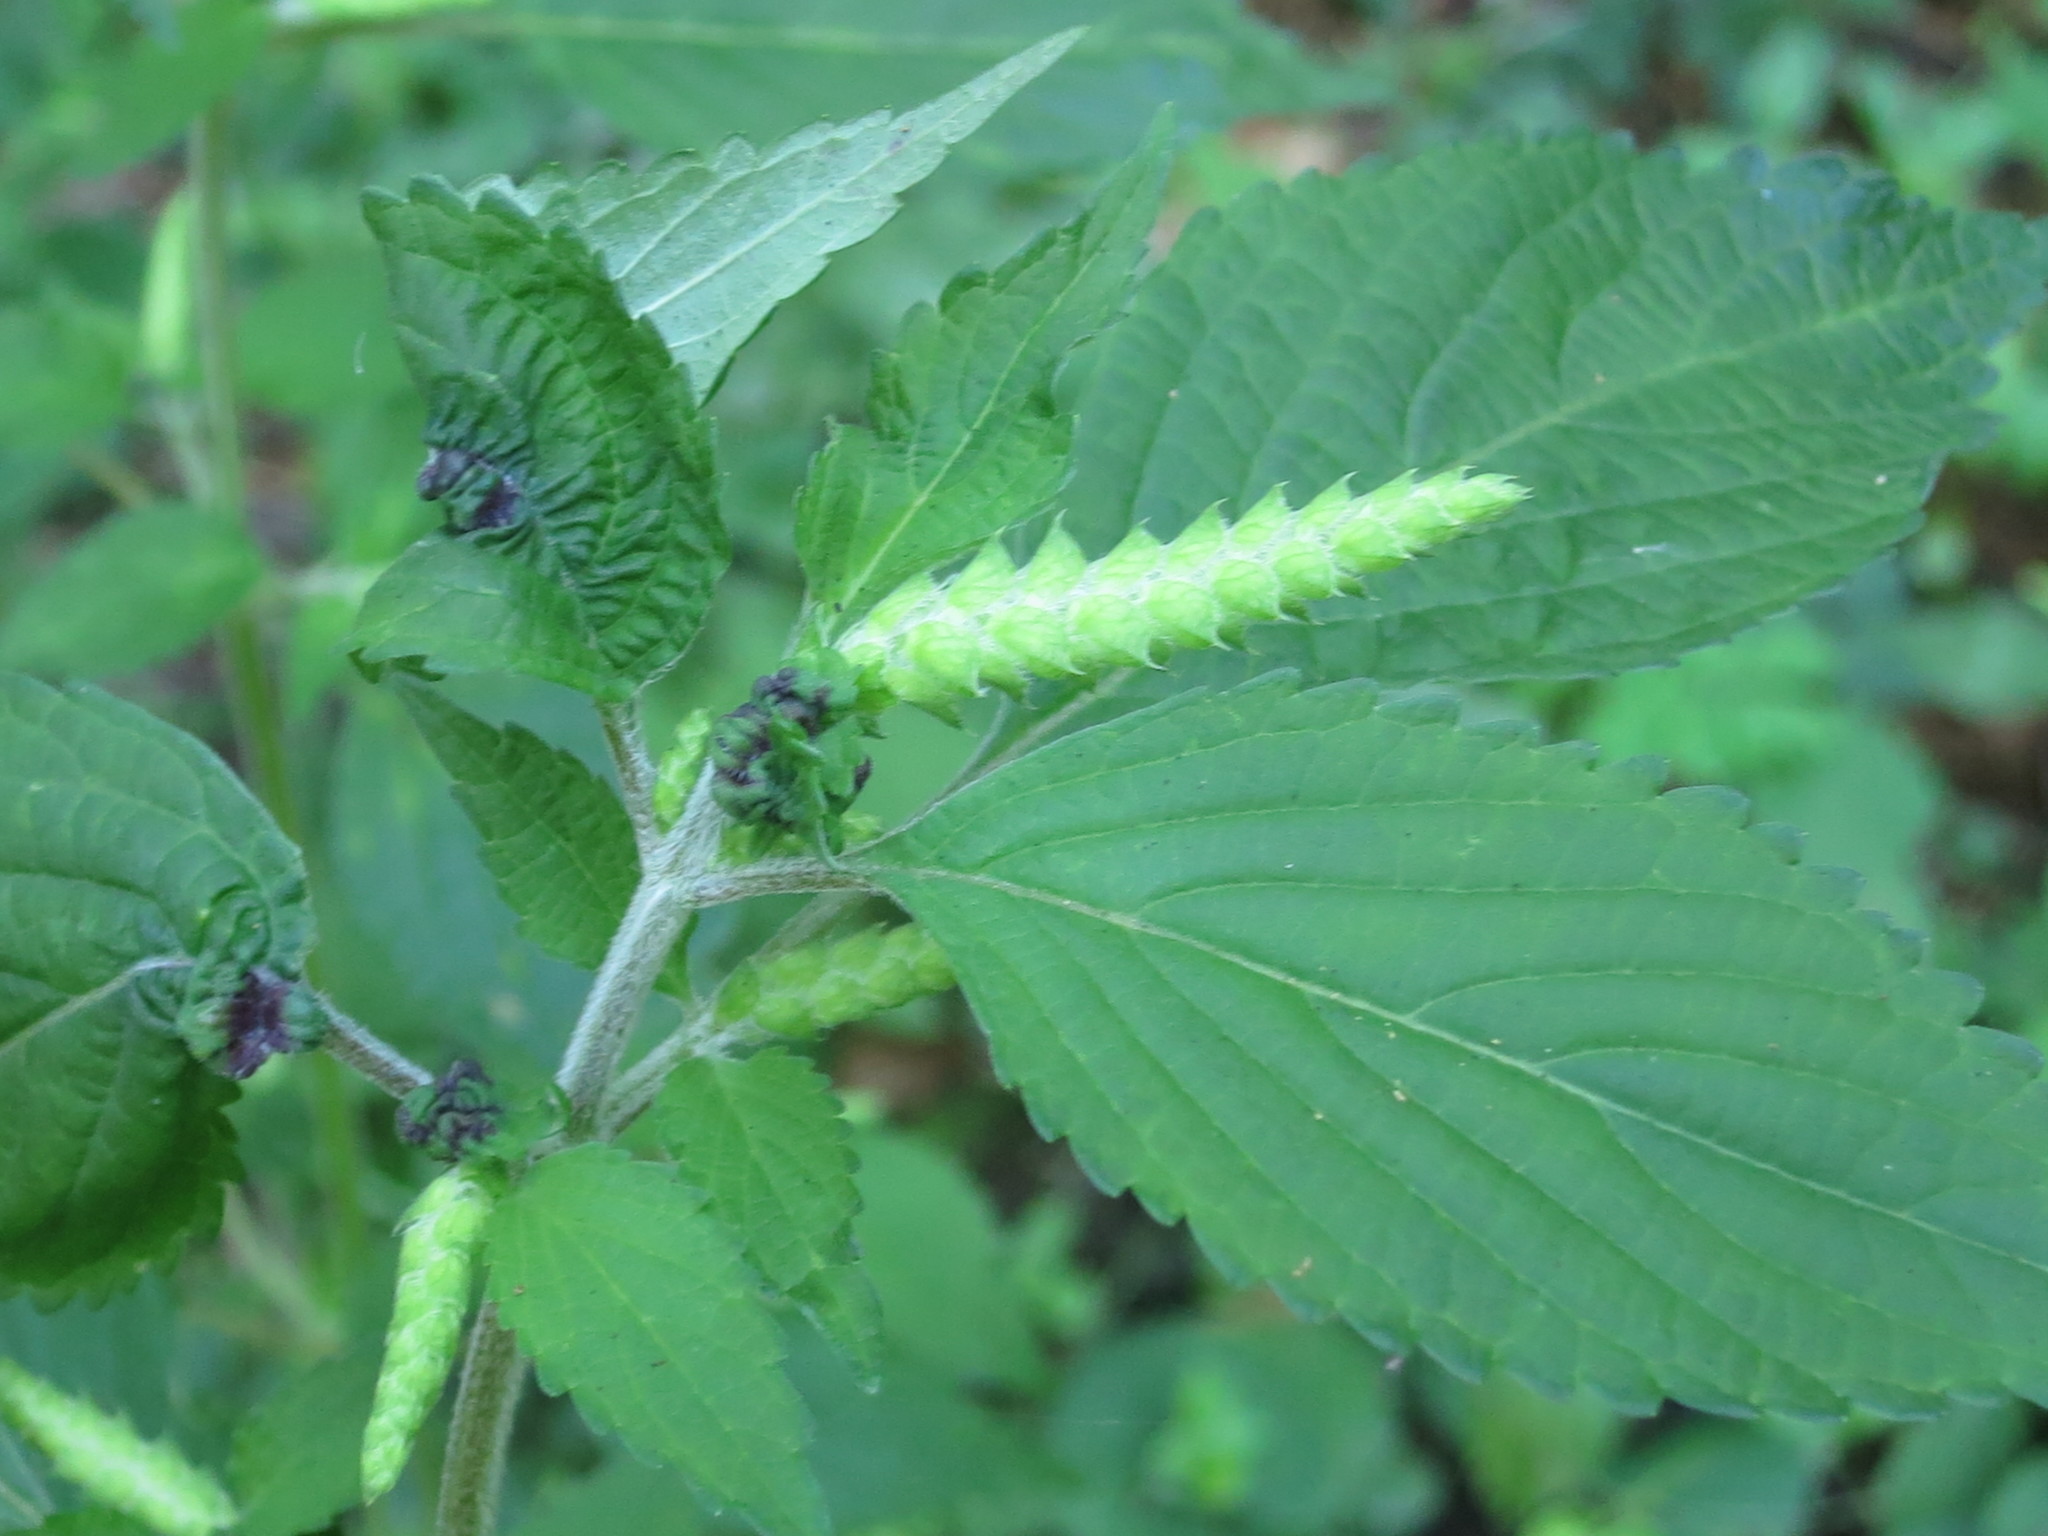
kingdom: Plantae
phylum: Tracheophyta
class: Magnoliopsida
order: Lamiales
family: Lamiaceae
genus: Elsholtzia
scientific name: Elsholtzia ciliata
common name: Ciliate elsholtzia
